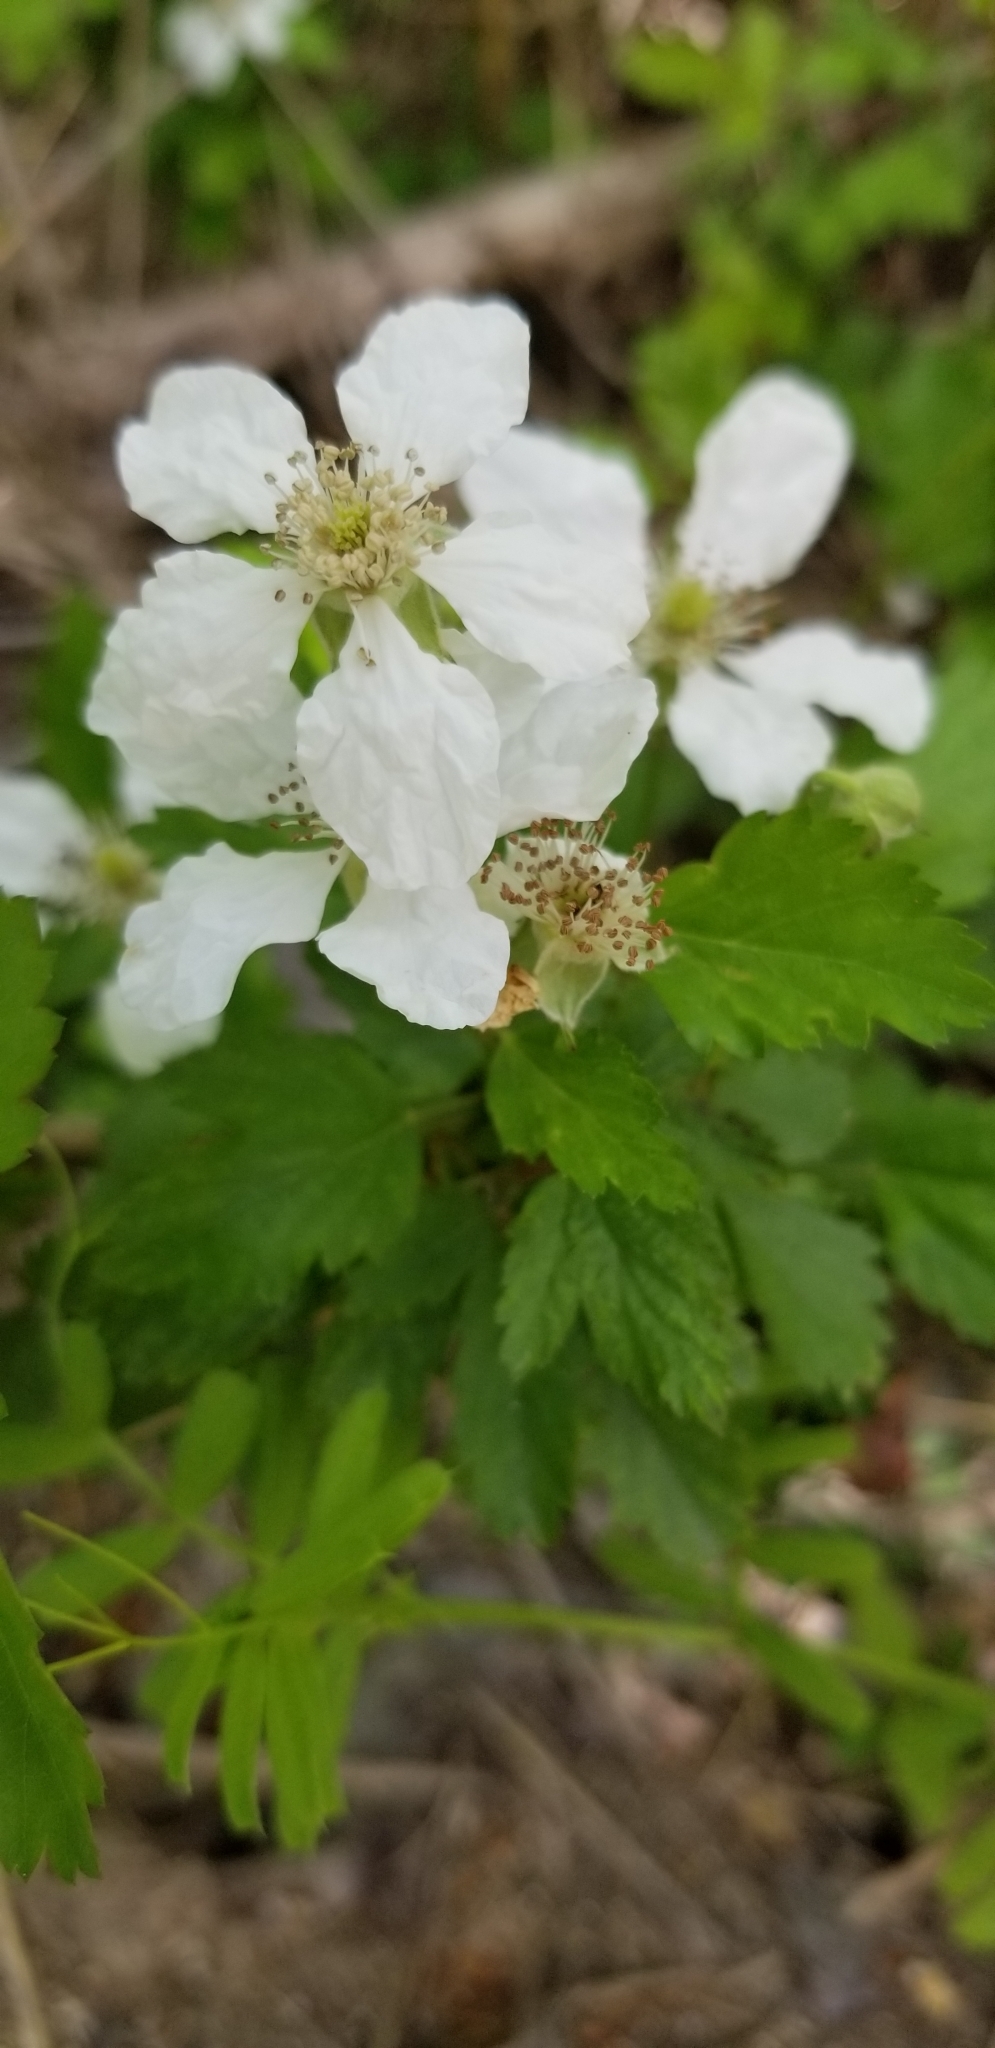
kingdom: Plantae
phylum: Tracheophyta
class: Magnoliopsida
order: Rosales
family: Rosaceae
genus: Rubus
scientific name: Rubus trivialis
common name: Southern dewberry
